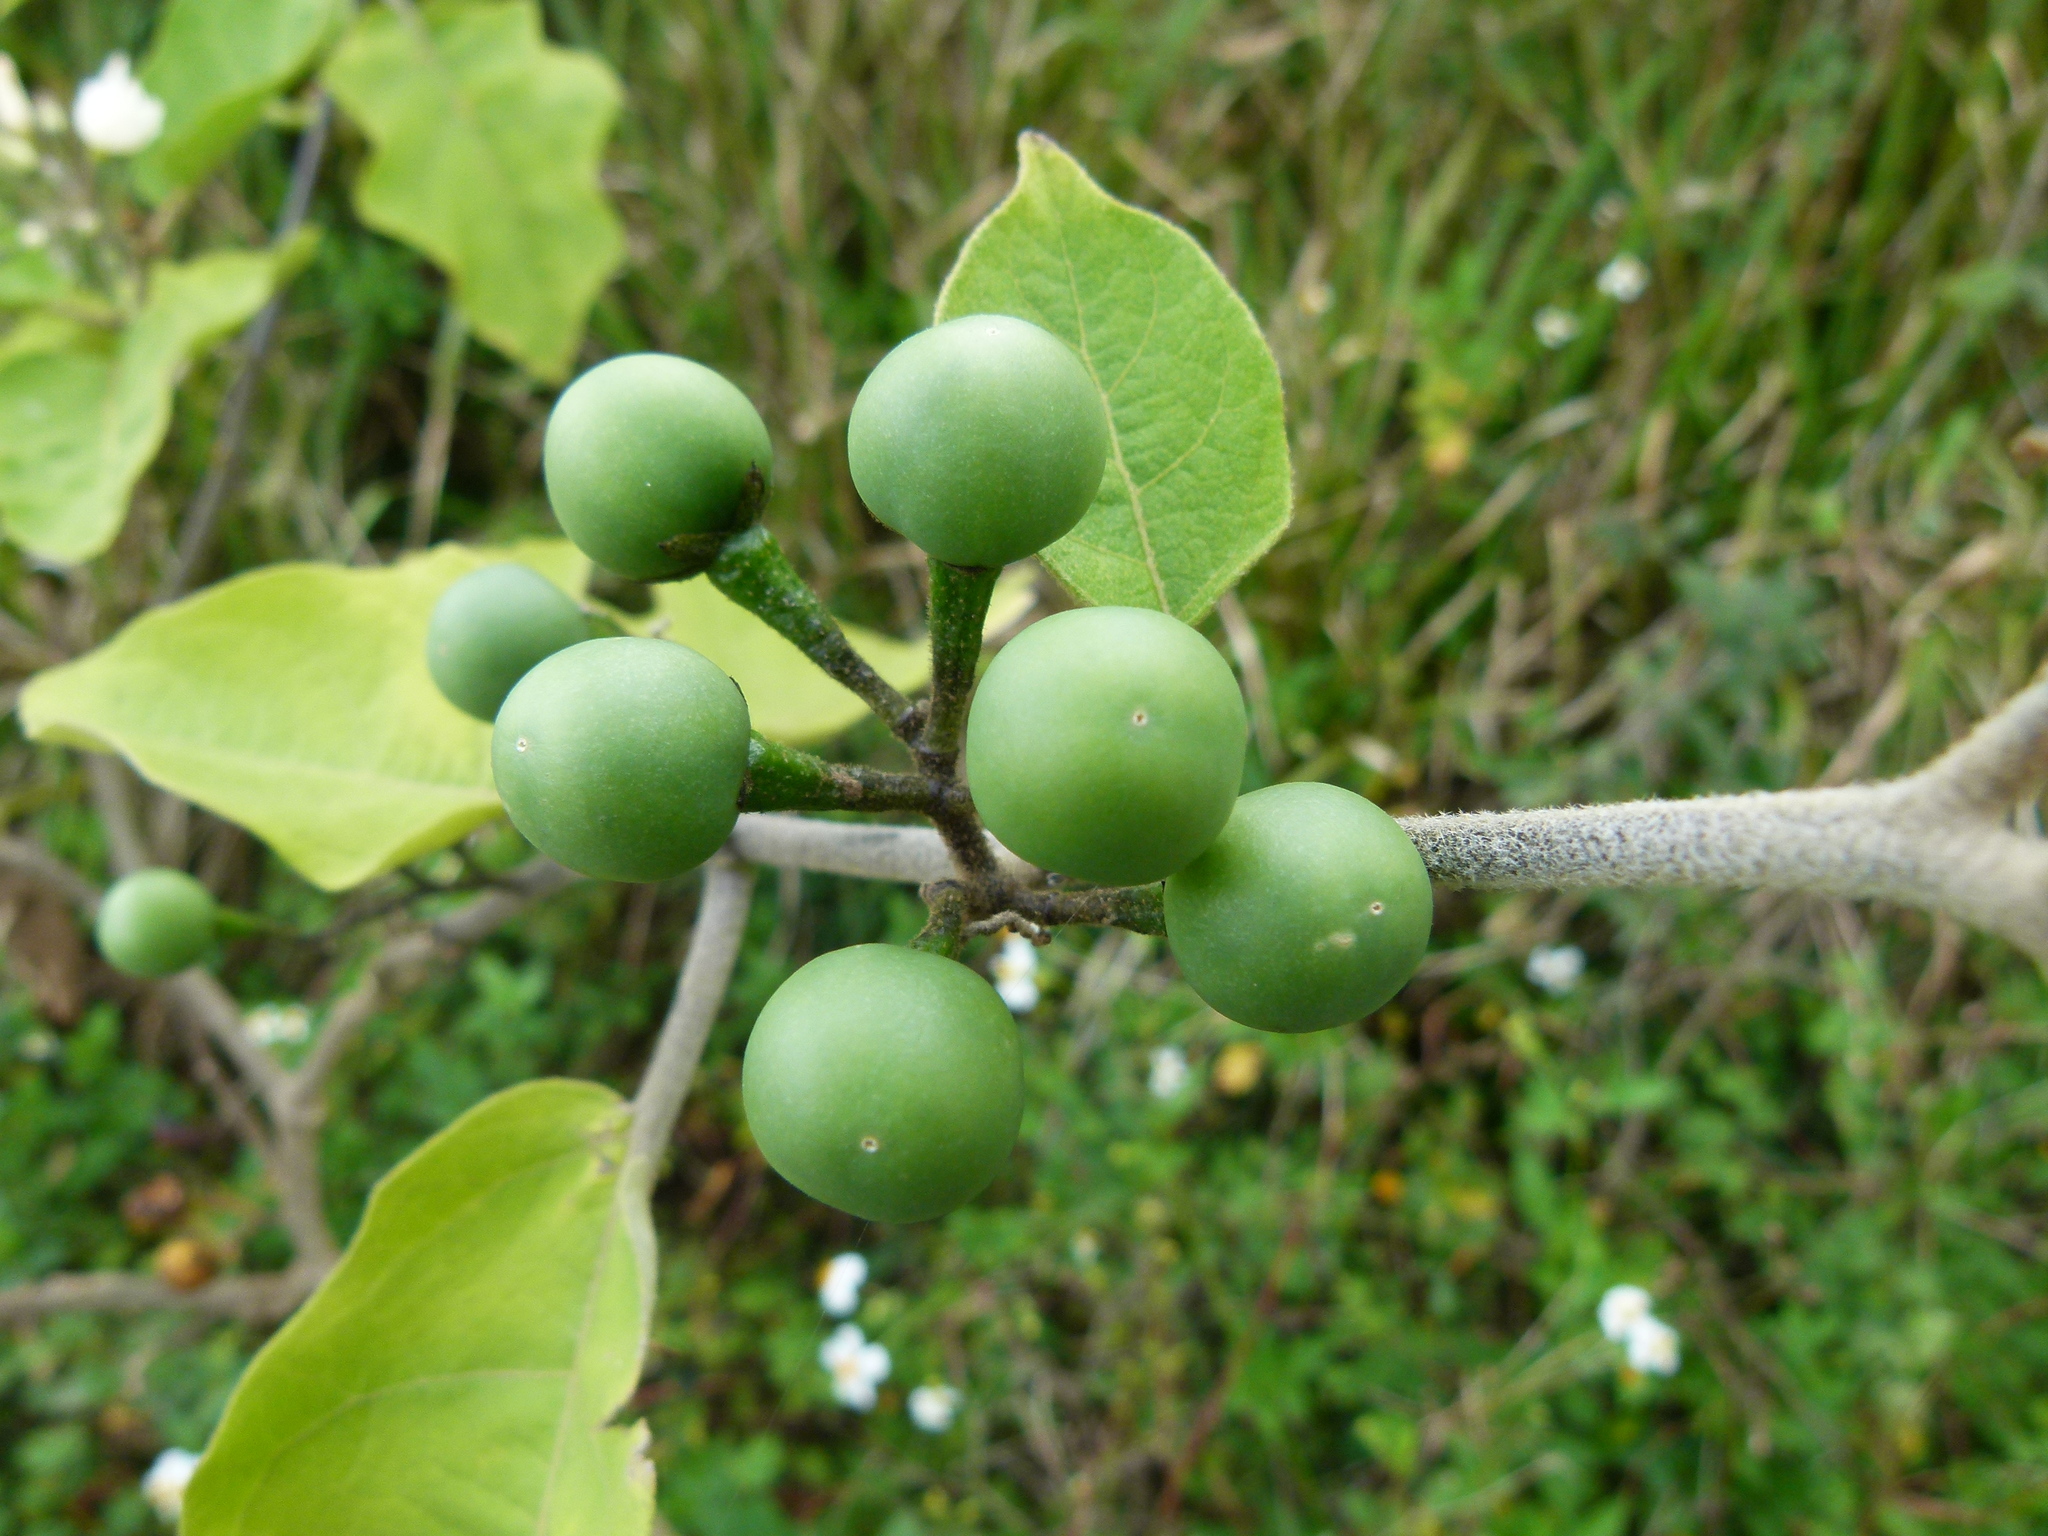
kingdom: Plantae
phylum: Tracheophyta
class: Magnoliopsida
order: Solanales
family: Solanaceae
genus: Solanum
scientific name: Solanum torvum
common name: Turkey berry
